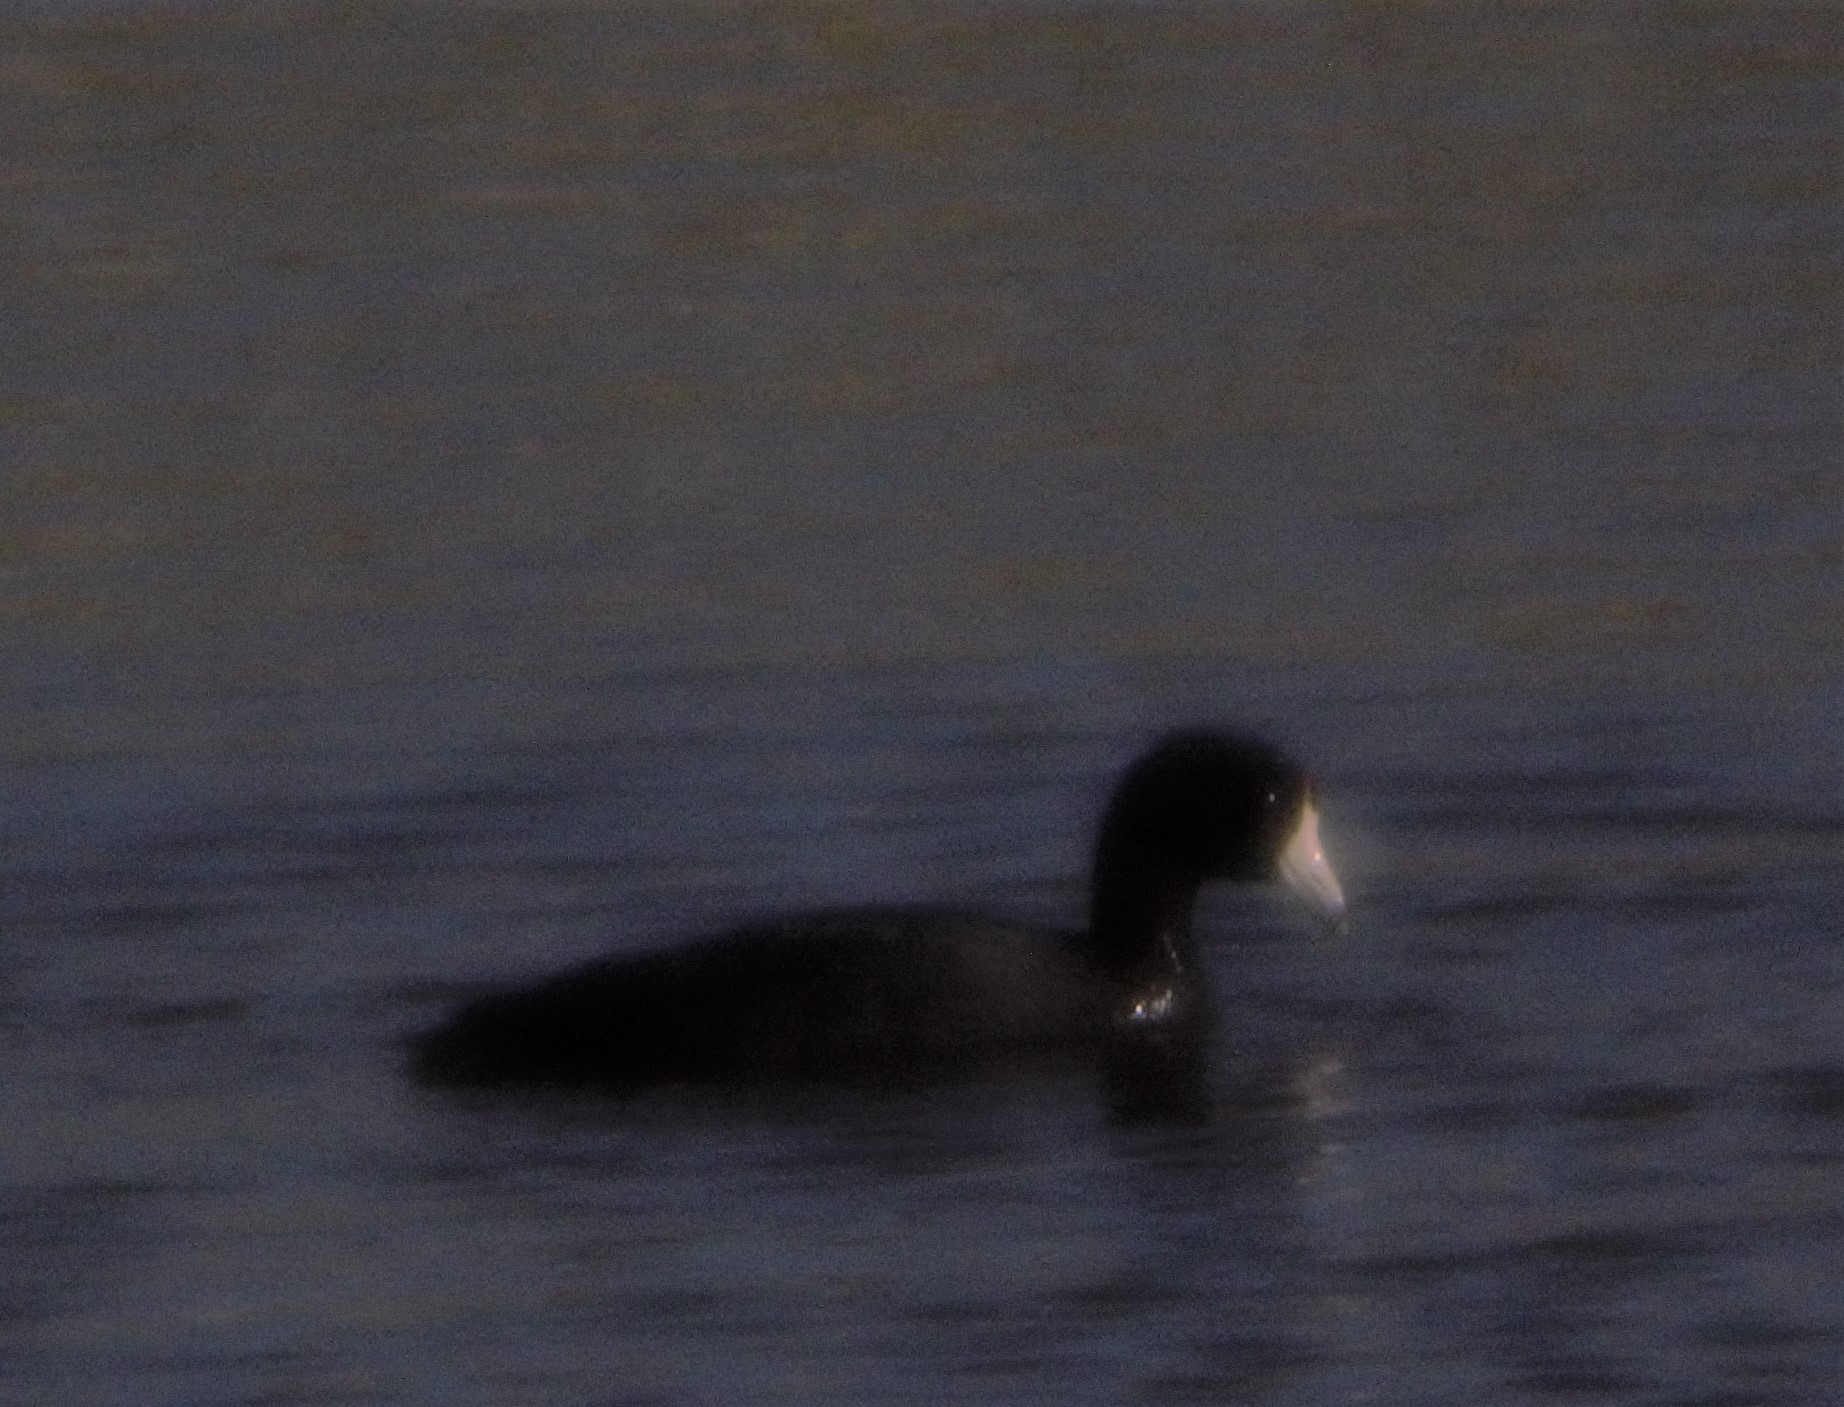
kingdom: Animalia
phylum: Chordata
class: Aves
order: Gruiformes
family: Rallidae
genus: Fulica
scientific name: Fulica americana
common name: American coot
